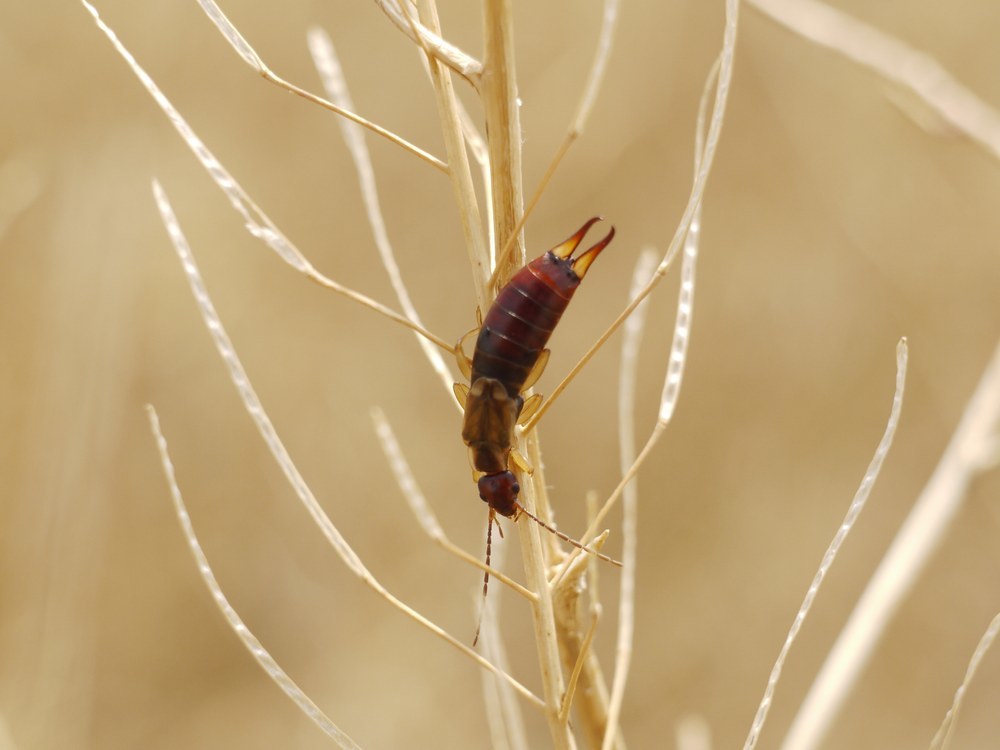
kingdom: Animalia
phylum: Arthropoda
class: Insecta
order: Dermaptera
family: Forficulidae
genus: Forficula
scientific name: Forficula
